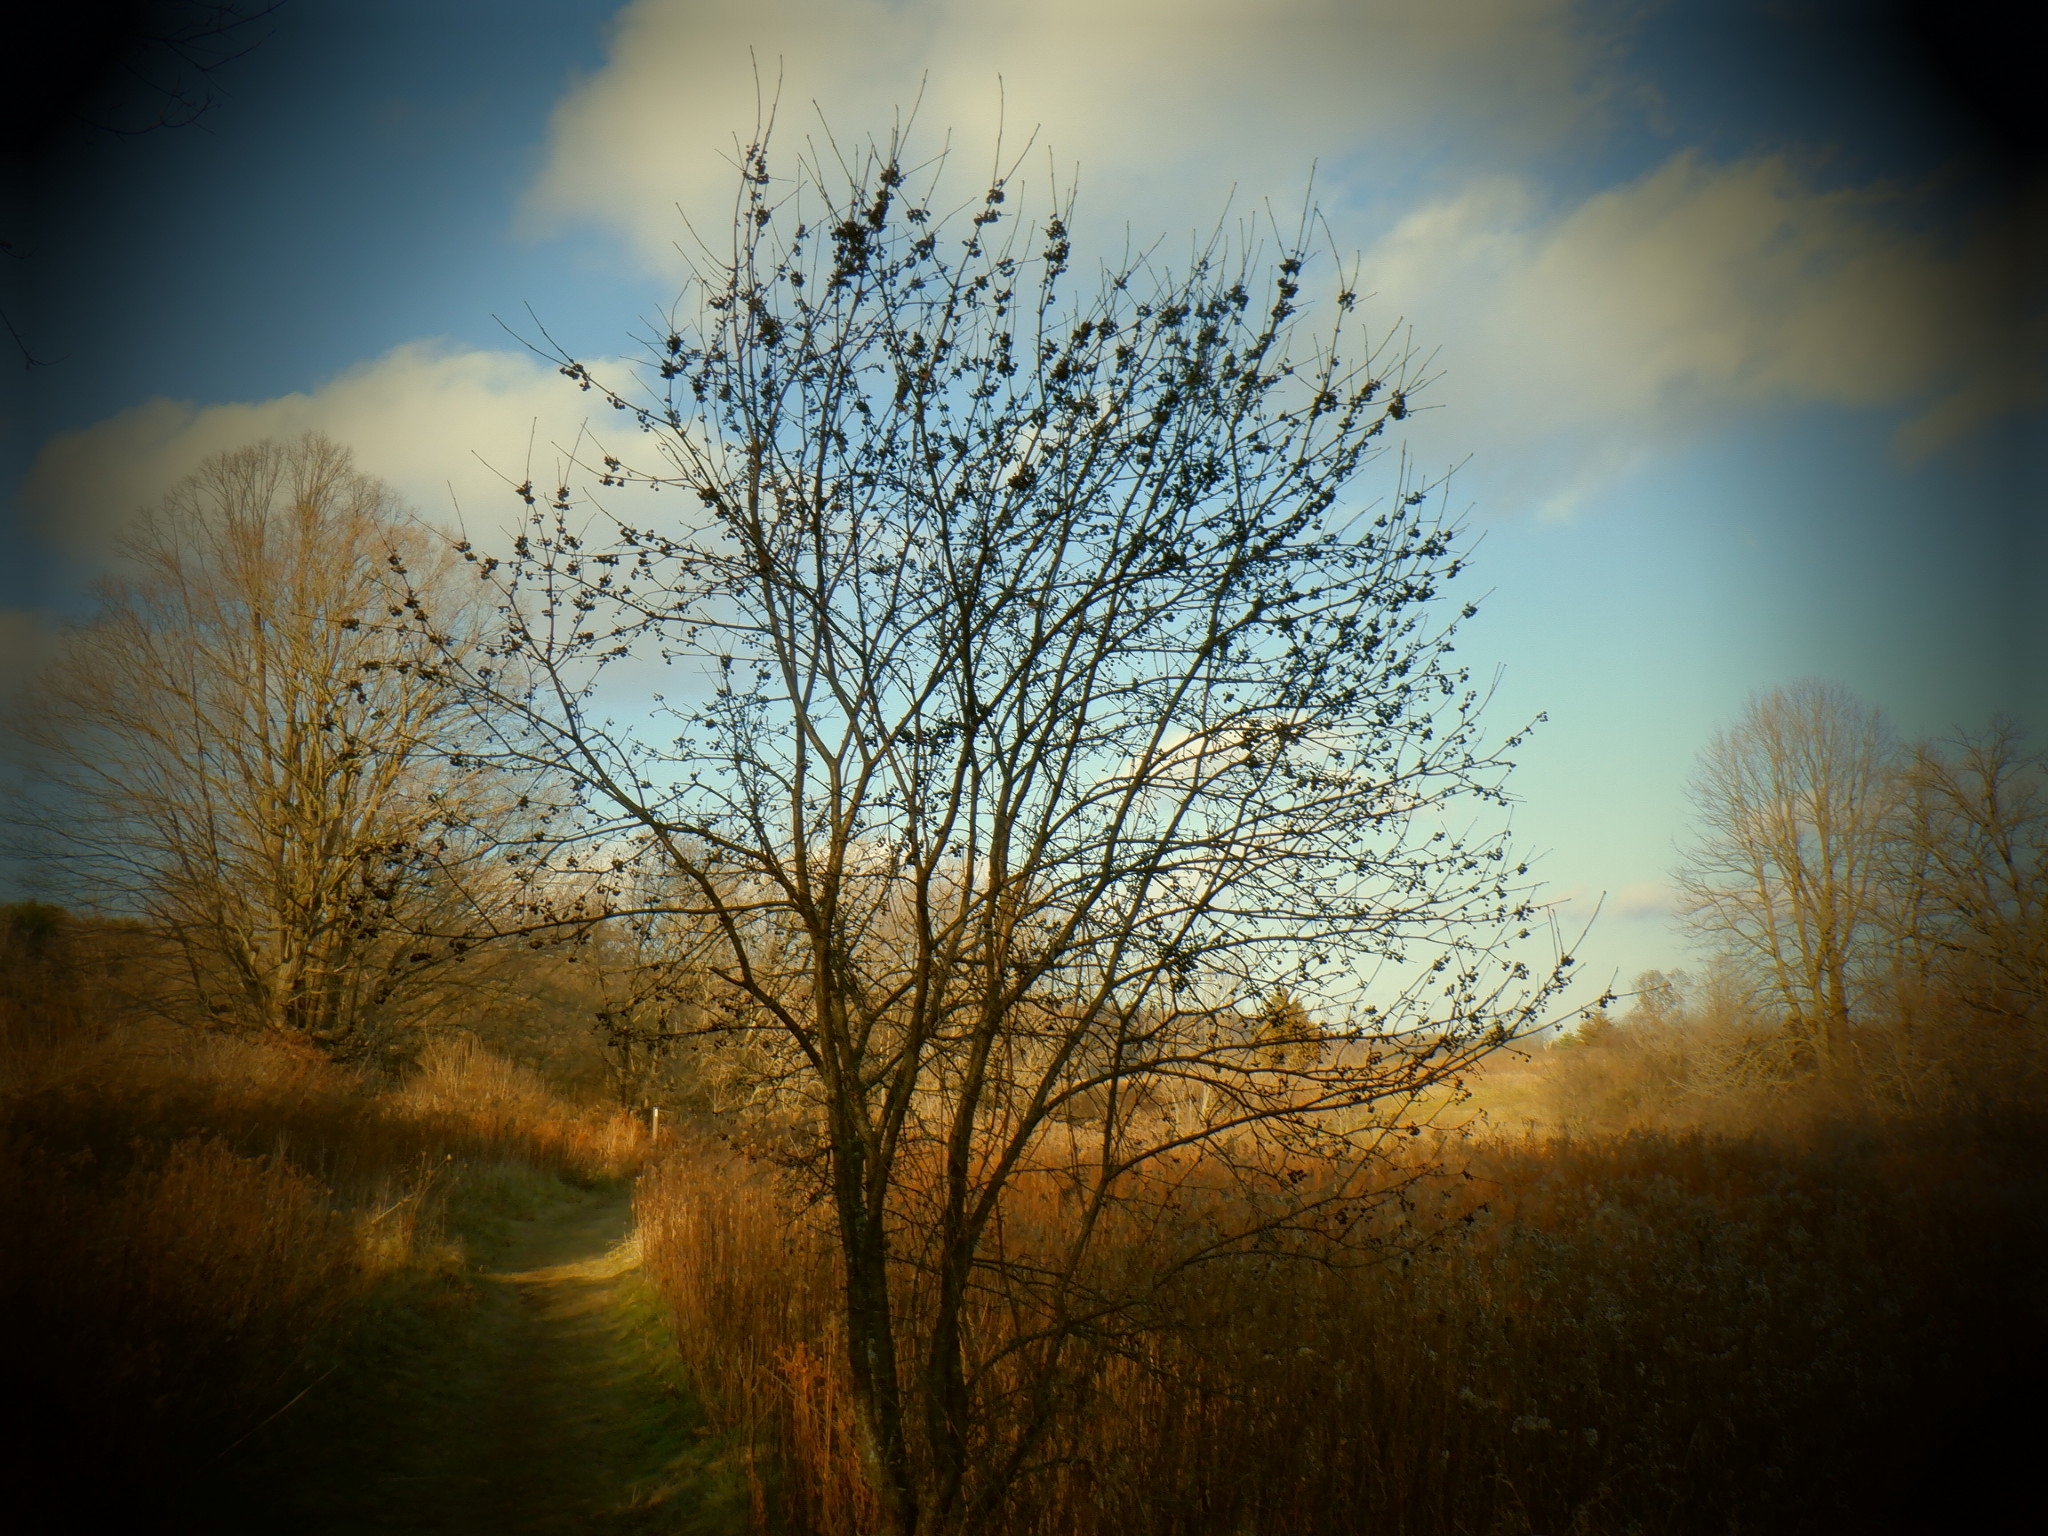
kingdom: Plantae
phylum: Tracheophyta
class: Magnoliopsida
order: Rosales
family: Rhamnaceae
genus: Rhamnus
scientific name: Rhamnus cathartica
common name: Common buckthorn
